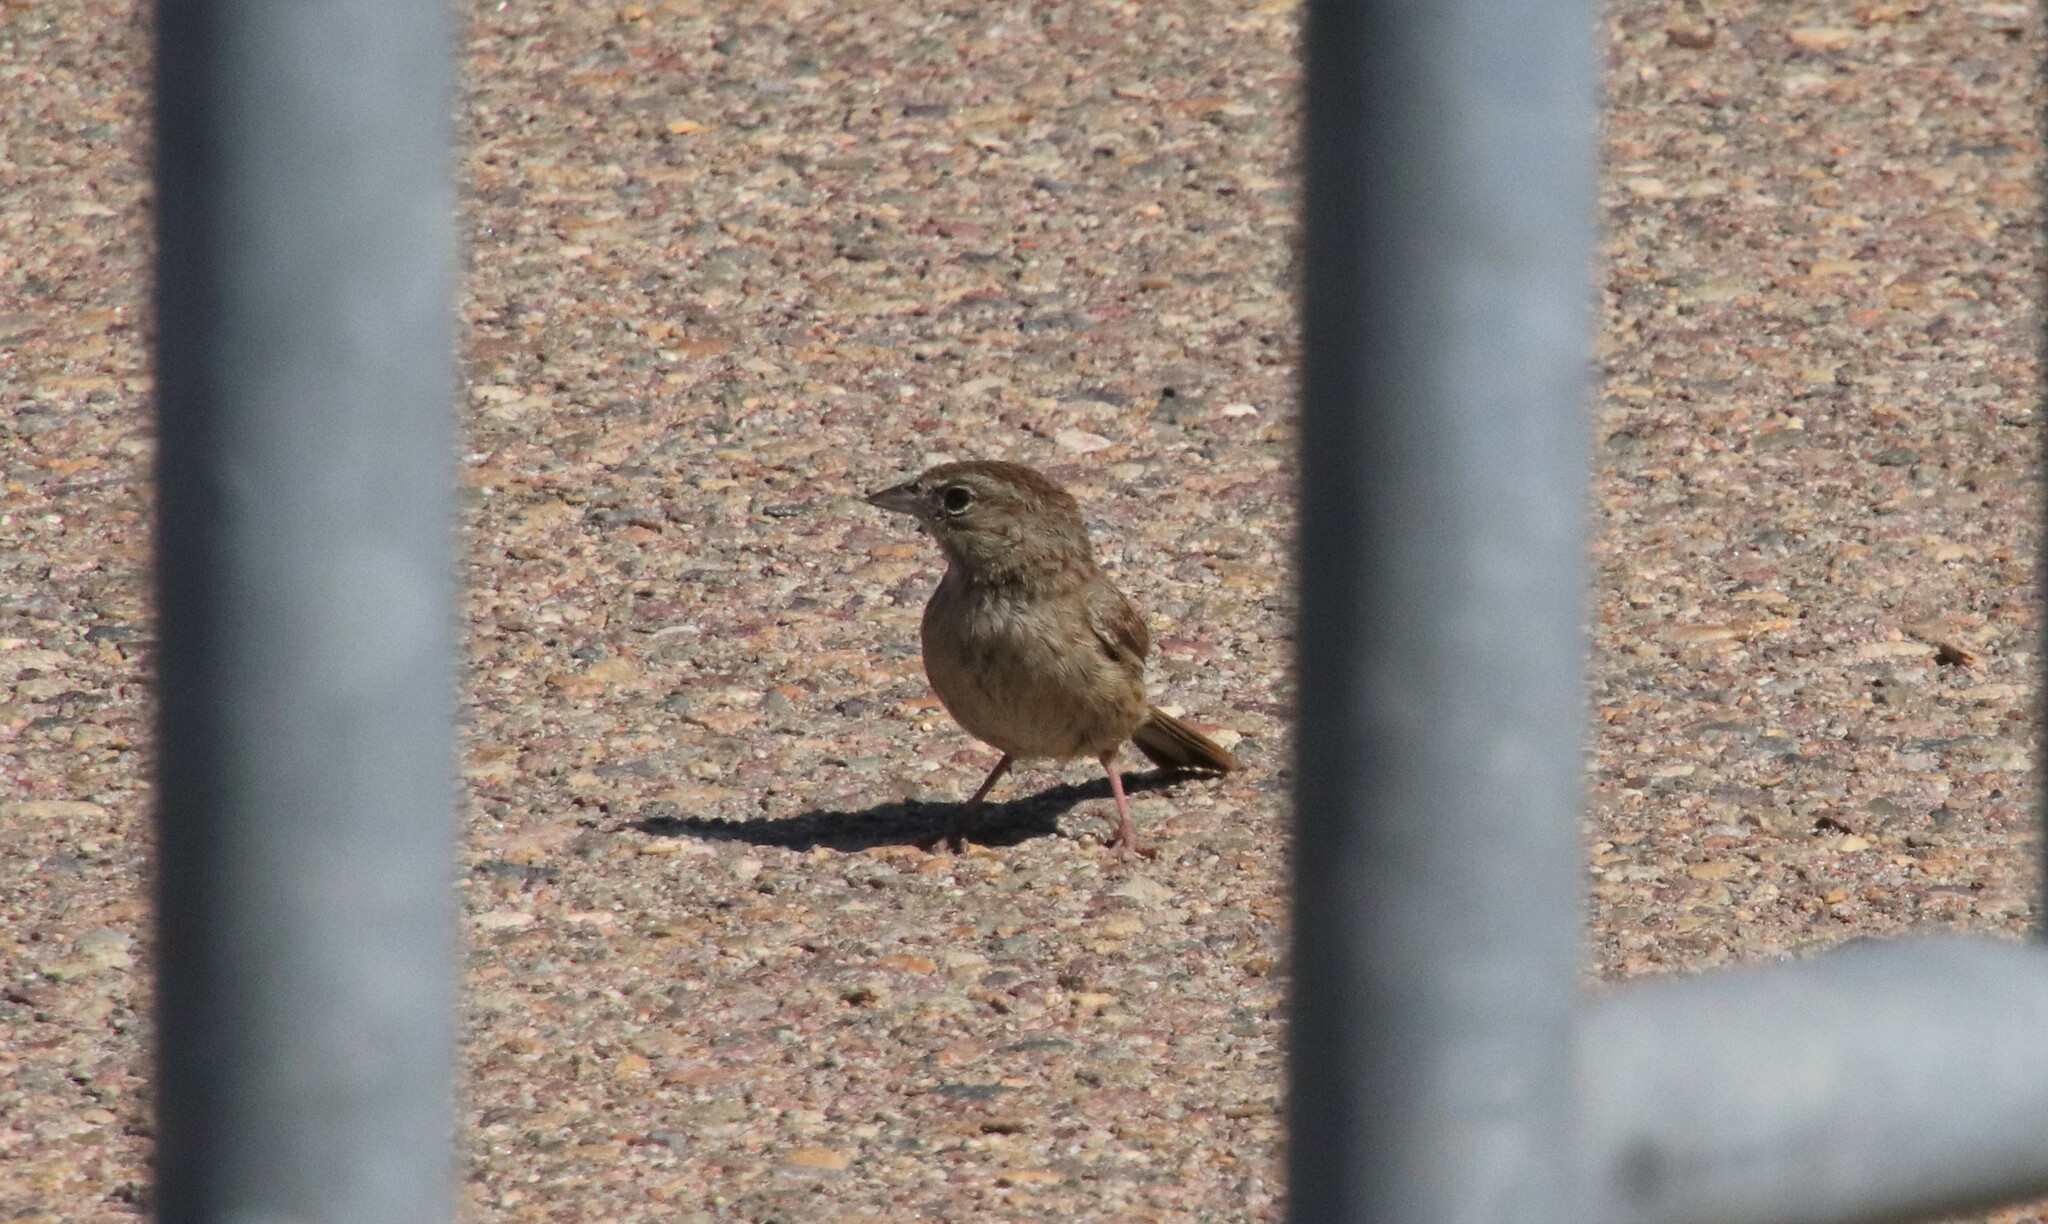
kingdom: Animalia
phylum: Chordata
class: Aves
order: Passeriformes
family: Passerellidae
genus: Aimophila
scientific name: Aimophila ruficeps
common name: Rufous-crowned sparrow
